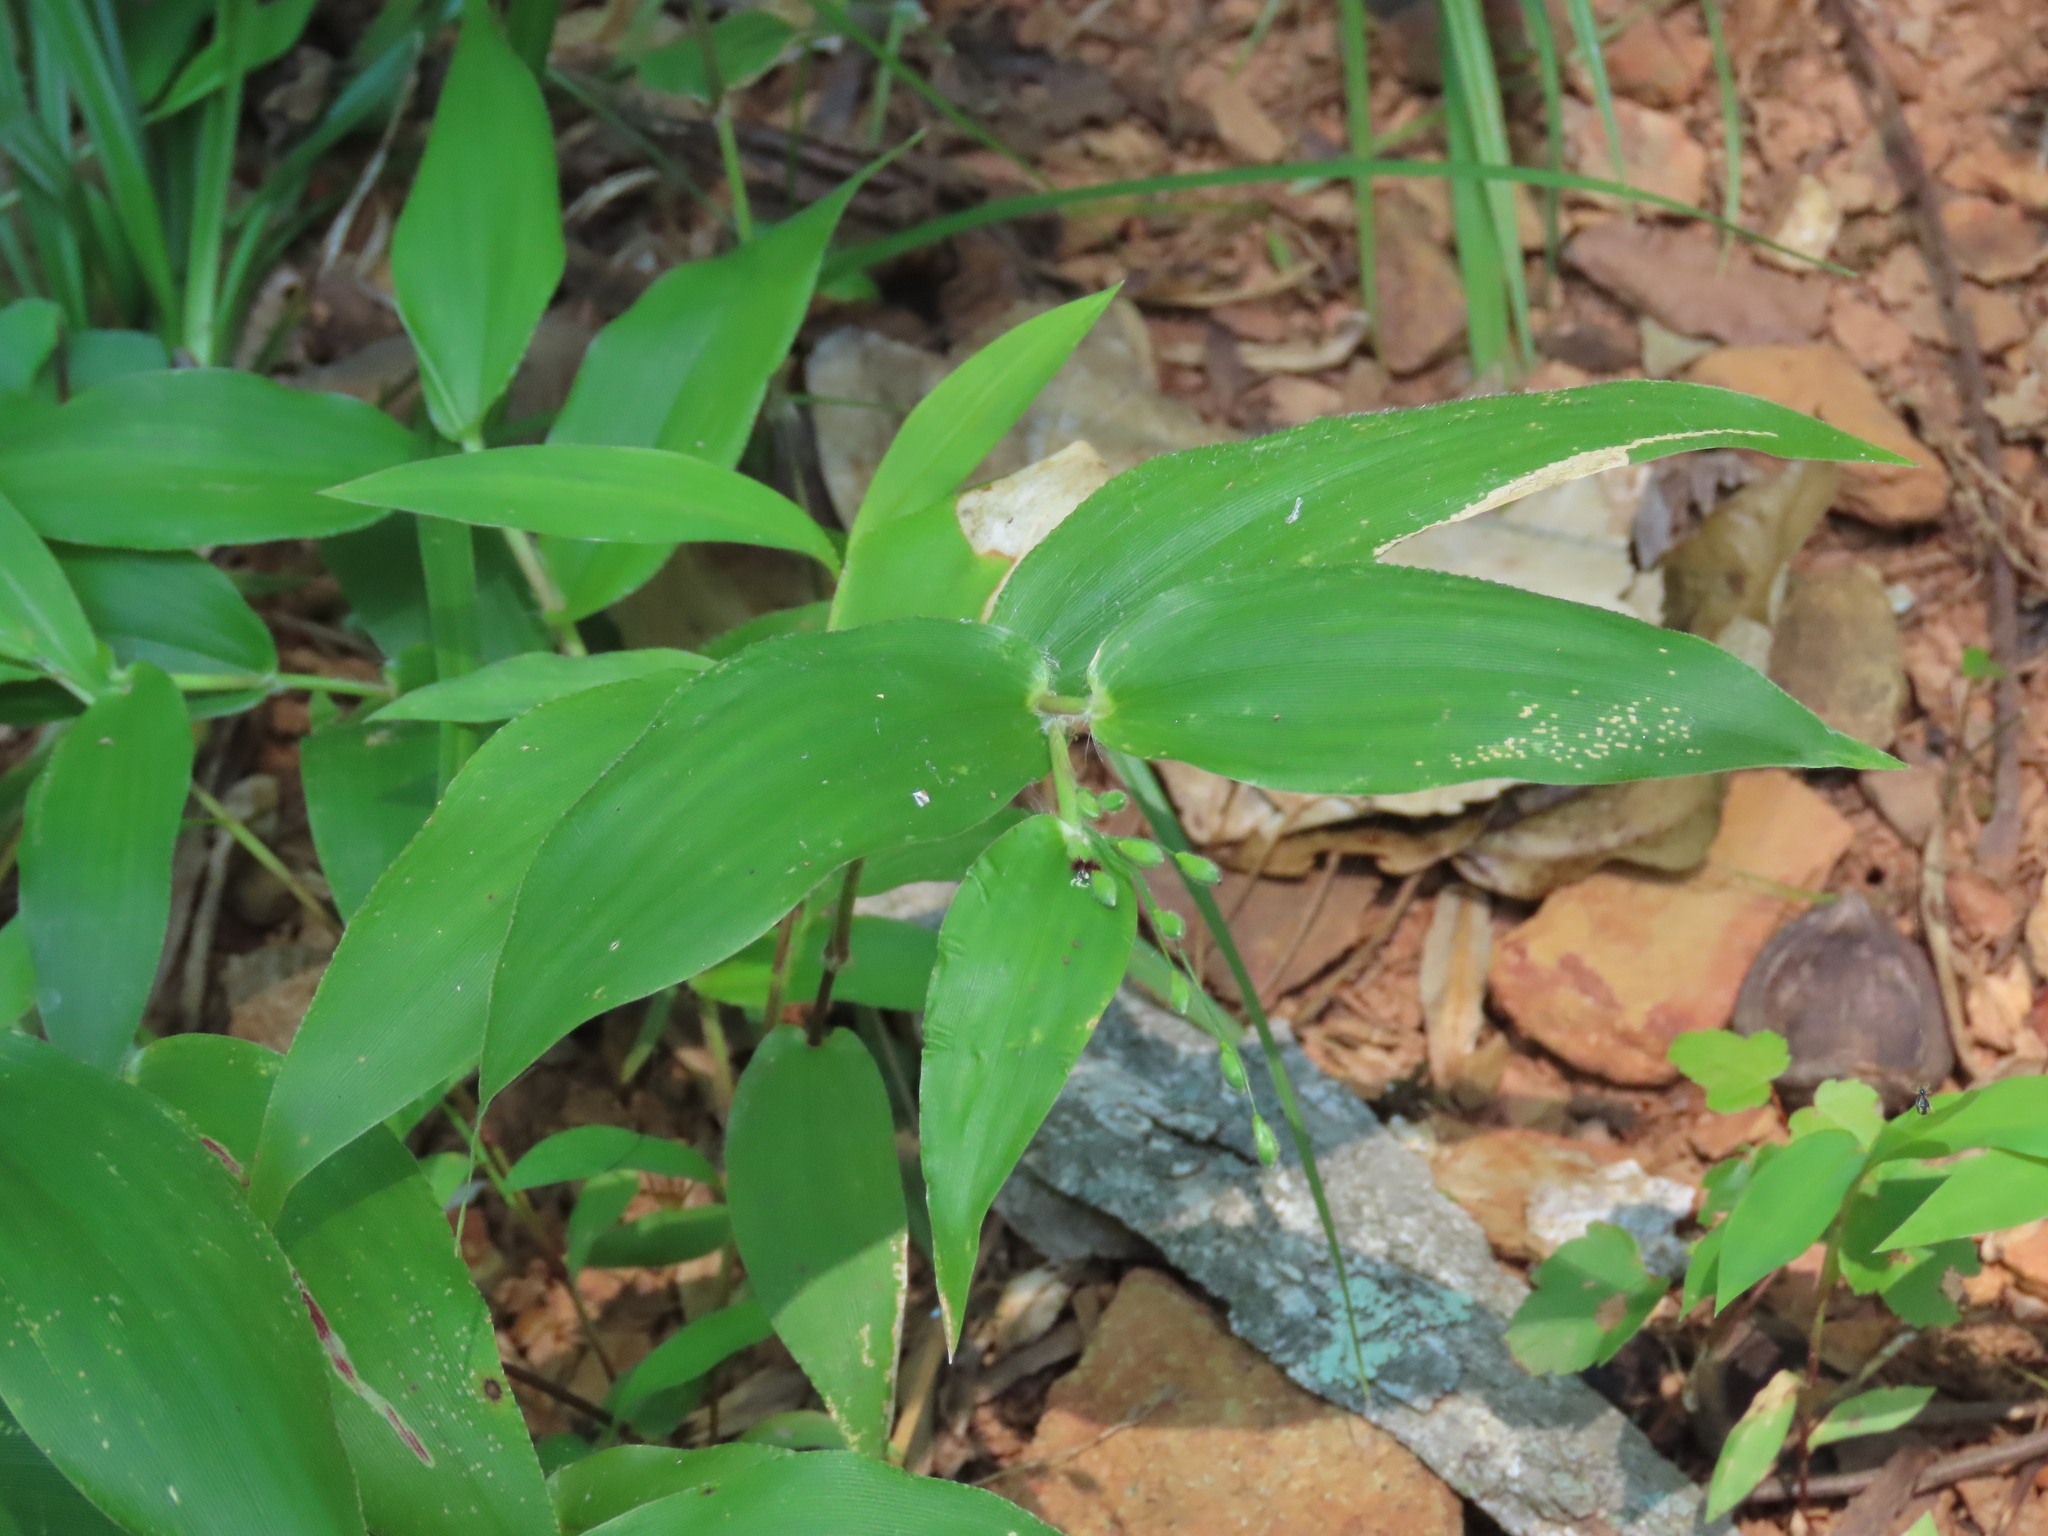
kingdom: Plantae
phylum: Tracheophyta
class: Liliopsida
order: Poales
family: Poaceae
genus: Dichanthelium
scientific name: Dichanthelium boscii
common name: Bosc's panic grass
